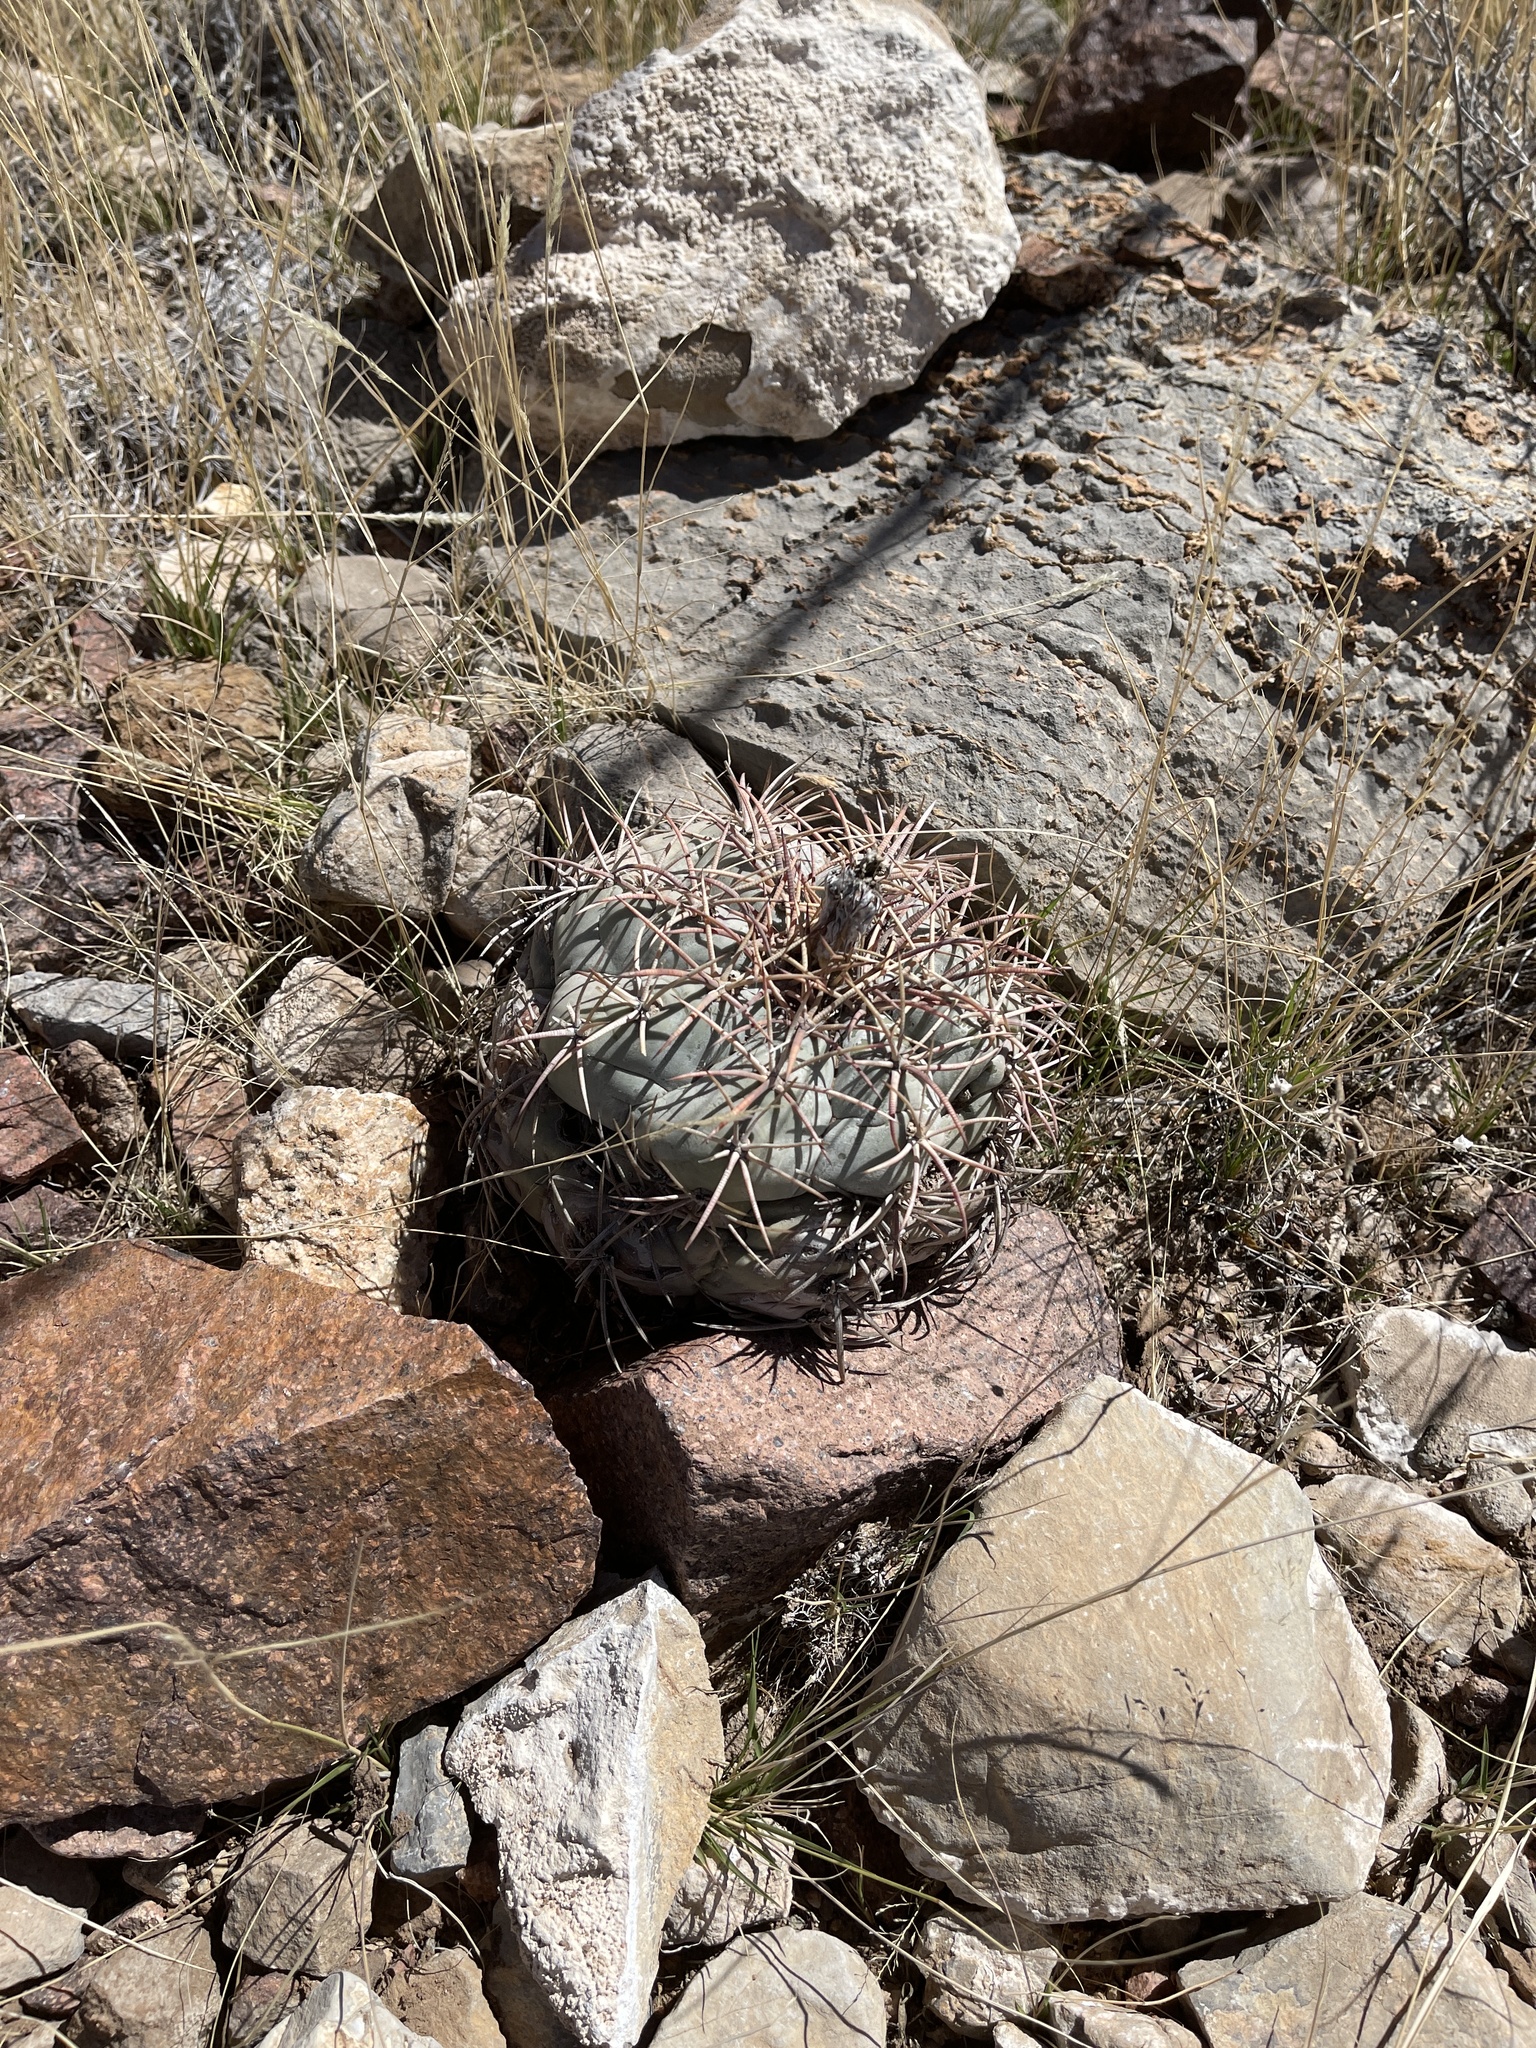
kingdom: Plantae
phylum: Tracheophyta
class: Magnoliopsida
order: Caryophyllales
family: Cactaceae
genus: Echinocactus
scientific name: Echinocactus horizonthalonius
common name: Devilshead
